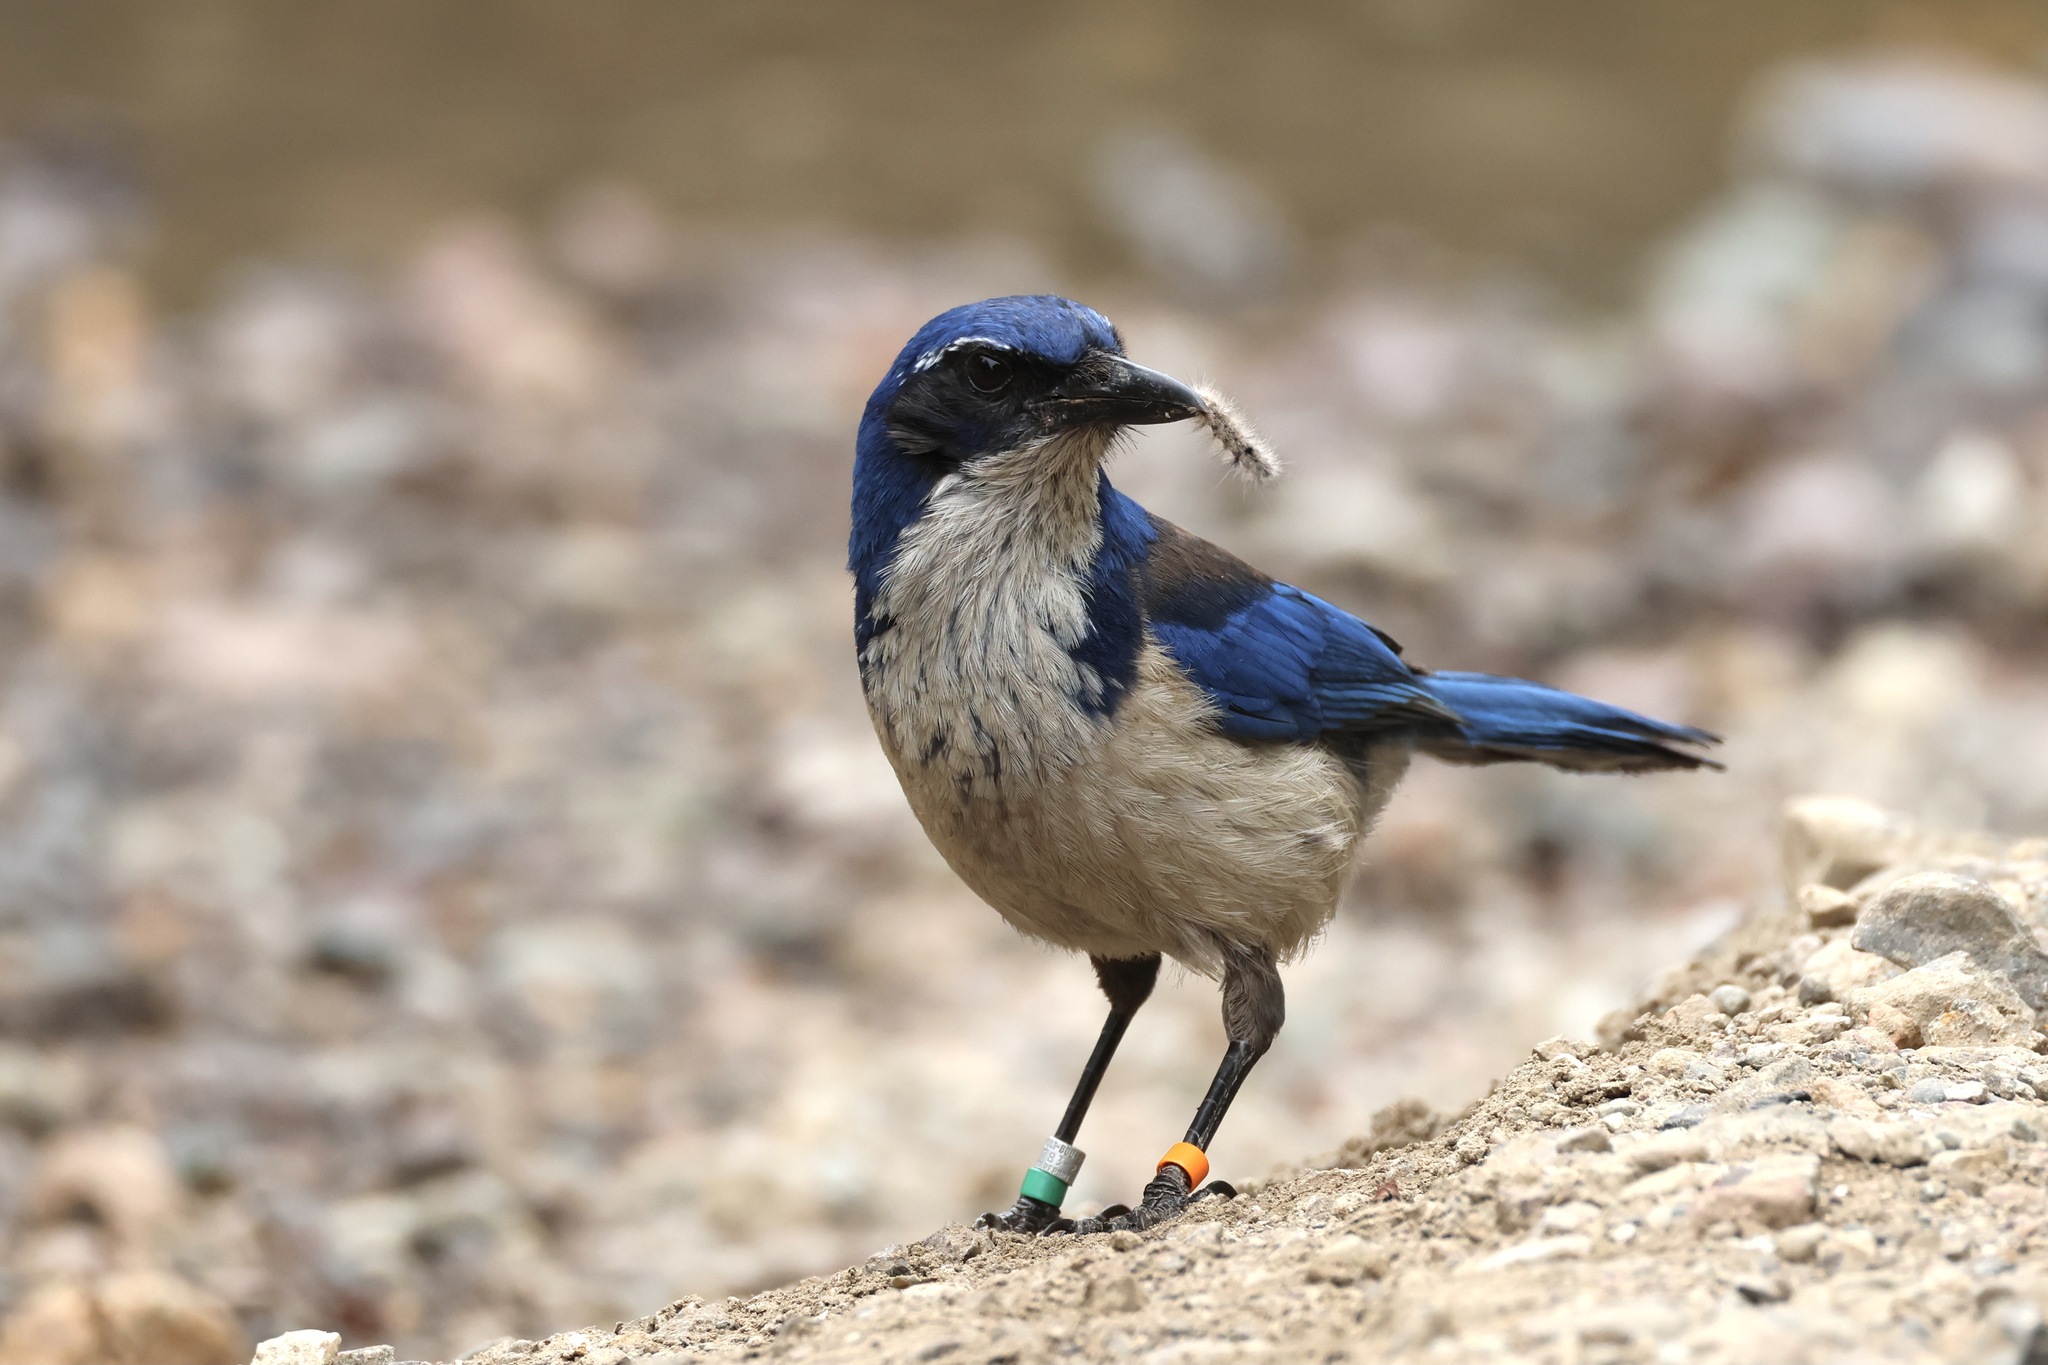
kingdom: Animalia
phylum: Chordata
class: Aves
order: Passeriformes
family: Corvidae
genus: Aphelocoma
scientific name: Aphelocoma insularis
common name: Island scrub-jay
